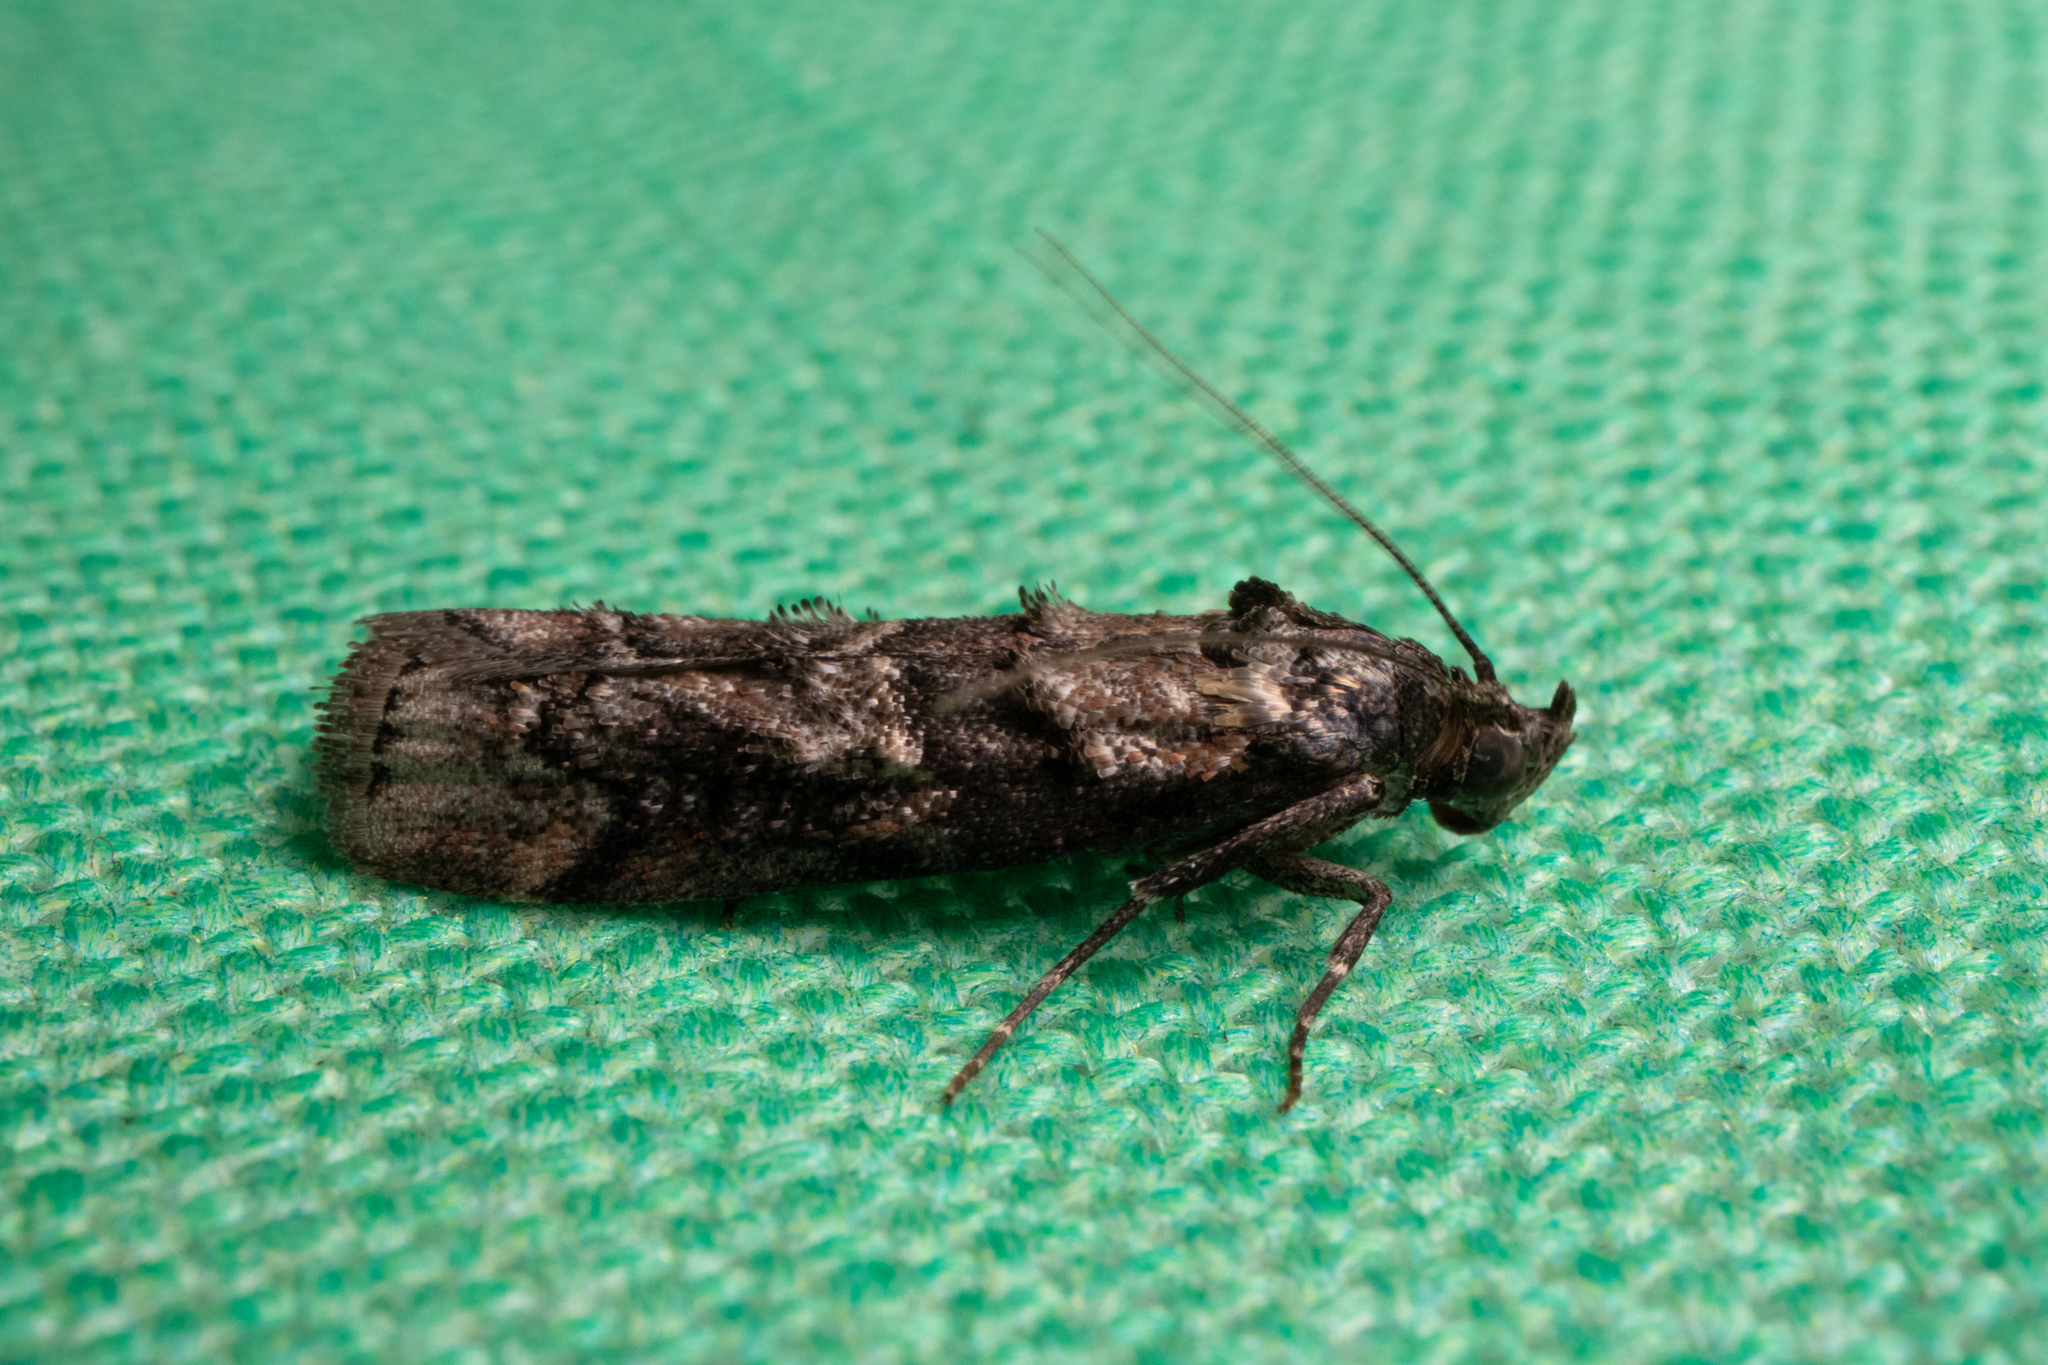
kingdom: Animalia
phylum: Arthropoda
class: Insecta
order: Lepidoptera
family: Pyralidae
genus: Dioryctria
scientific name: Dioryctria clarioralis
